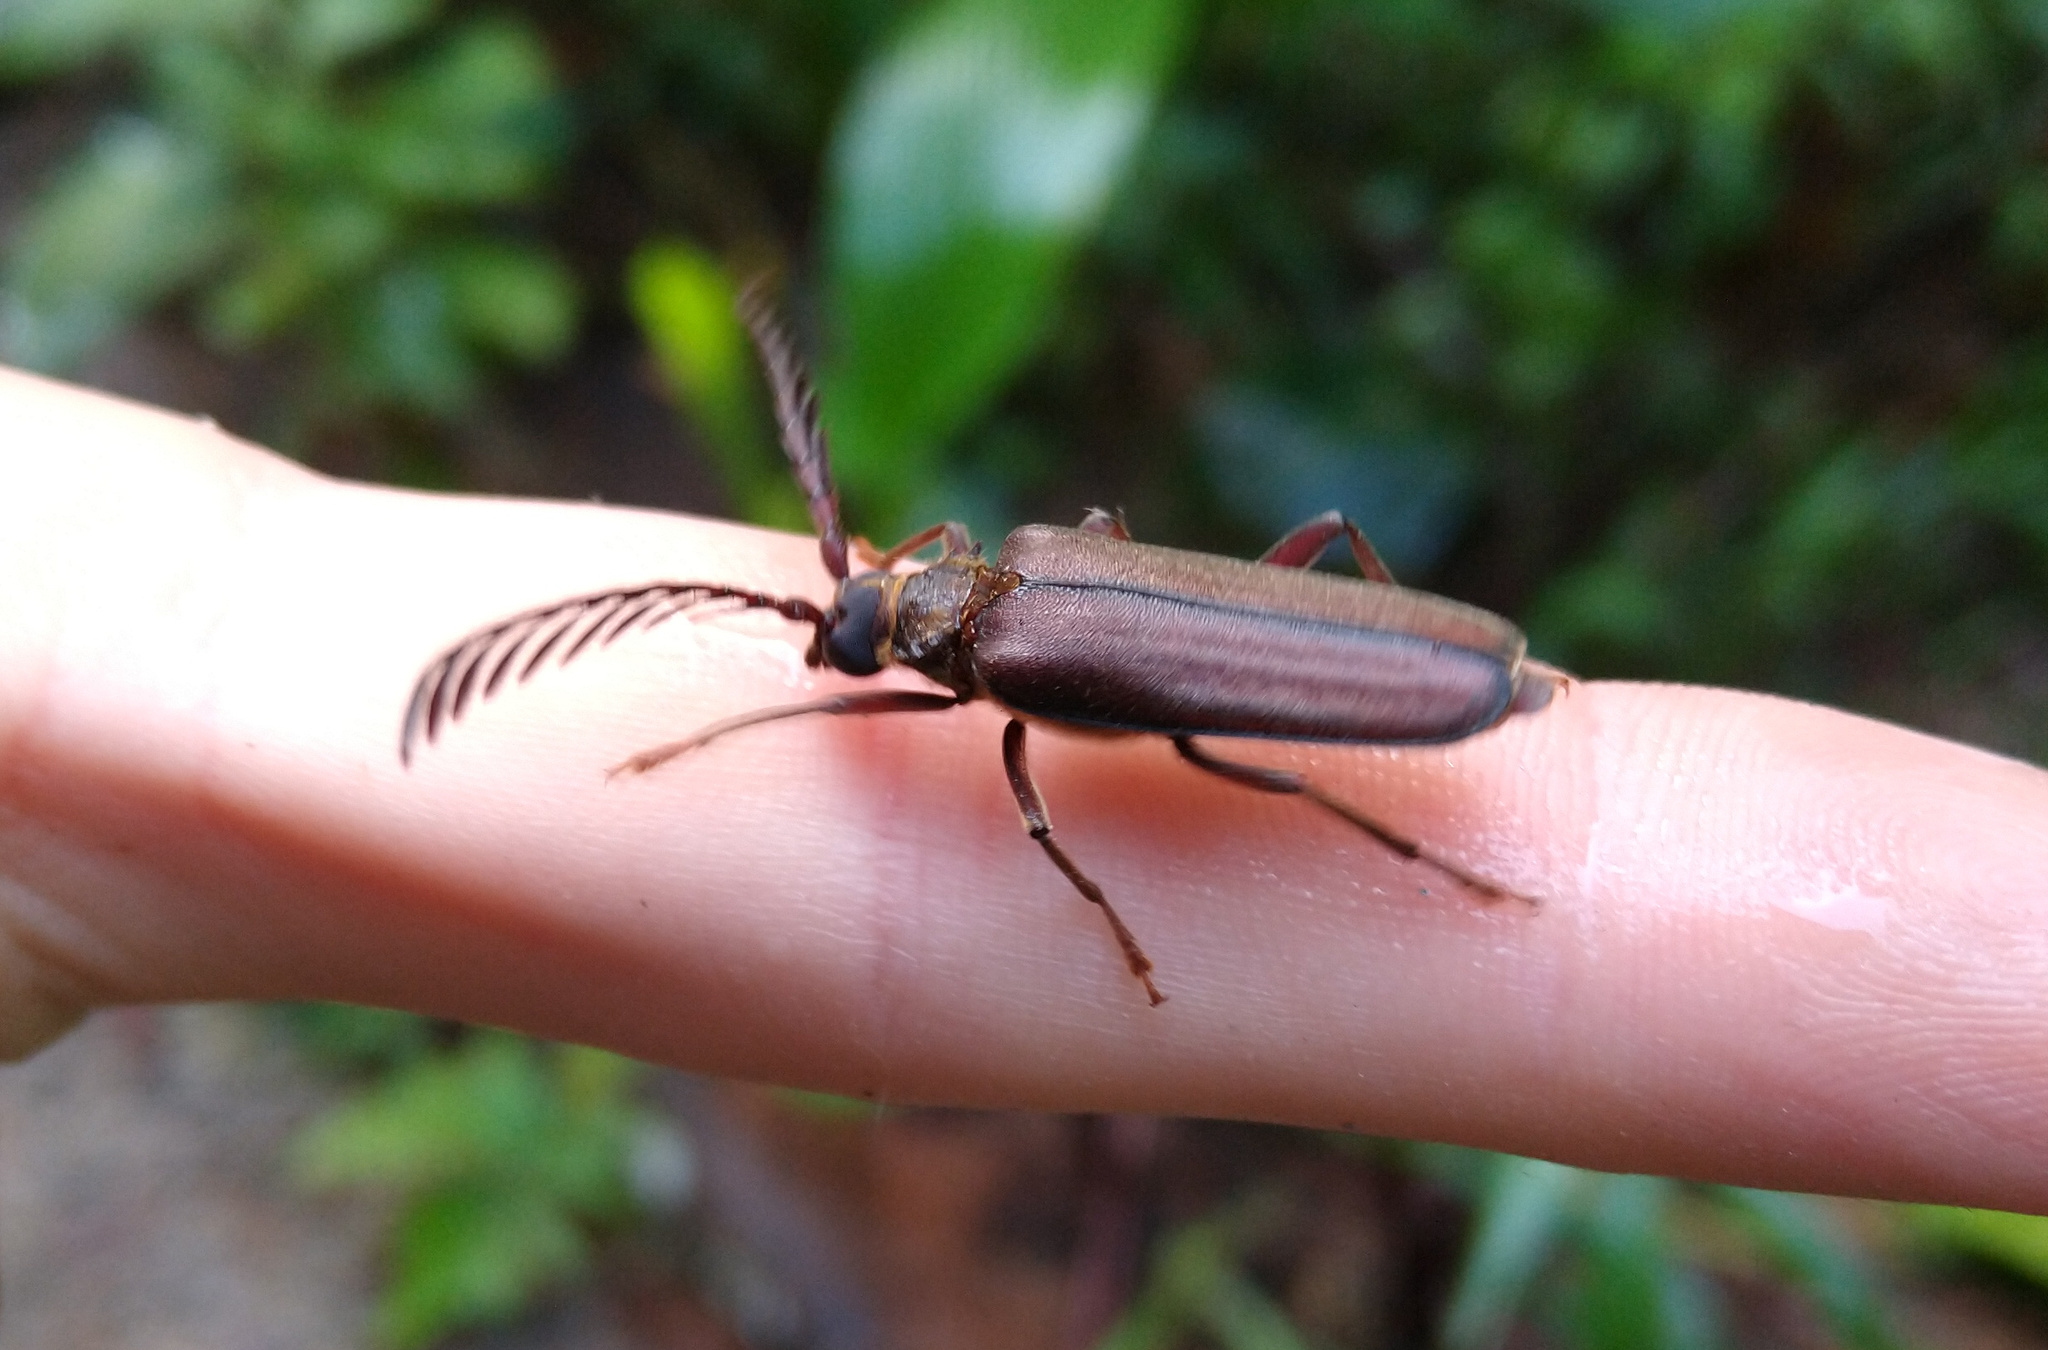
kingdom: Animalia
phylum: Arthropoda
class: Insecta
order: Coleoptera
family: Cerambycidae
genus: Polyoza
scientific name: Polyoza lacordairei
